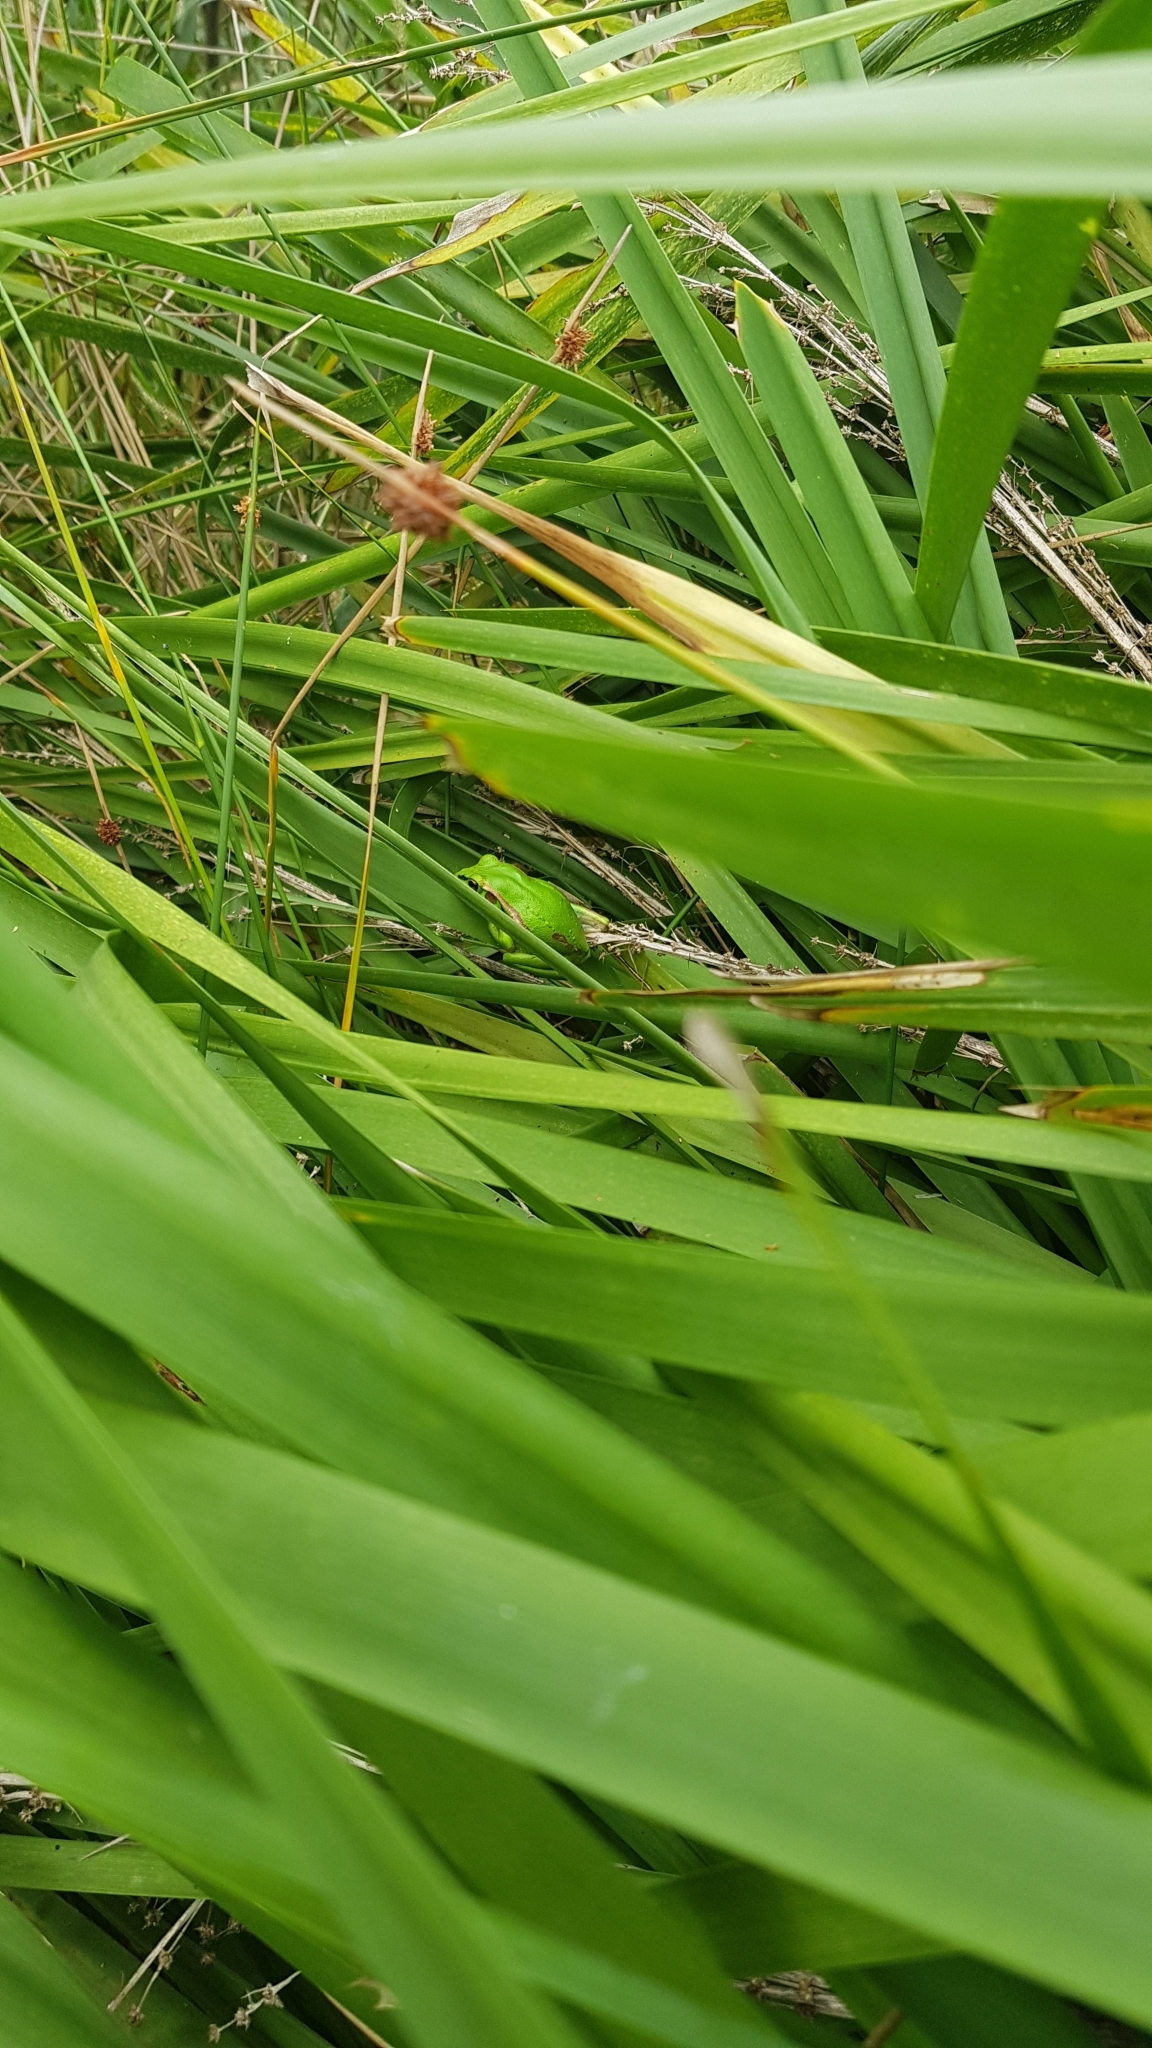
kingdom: Animalia
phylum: Chordata
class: Amphibia
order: Anura
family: Pelodryadidae
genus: Ranoidea
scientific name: Ranoidea aurea
